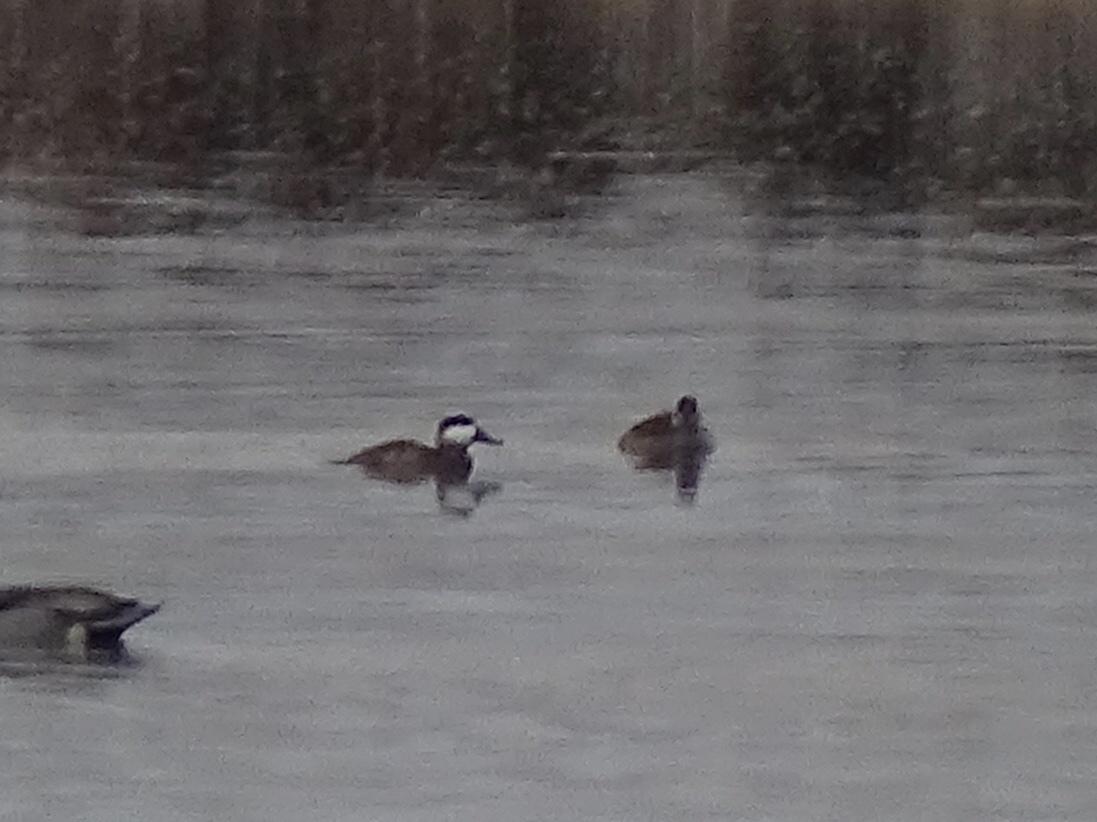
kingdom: Animalia
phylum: Chordata
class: Aves
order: Anseriformes
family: Anatidae
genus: Oxyura
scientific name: Oxyura jamaicensis
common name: Ruddy duck
